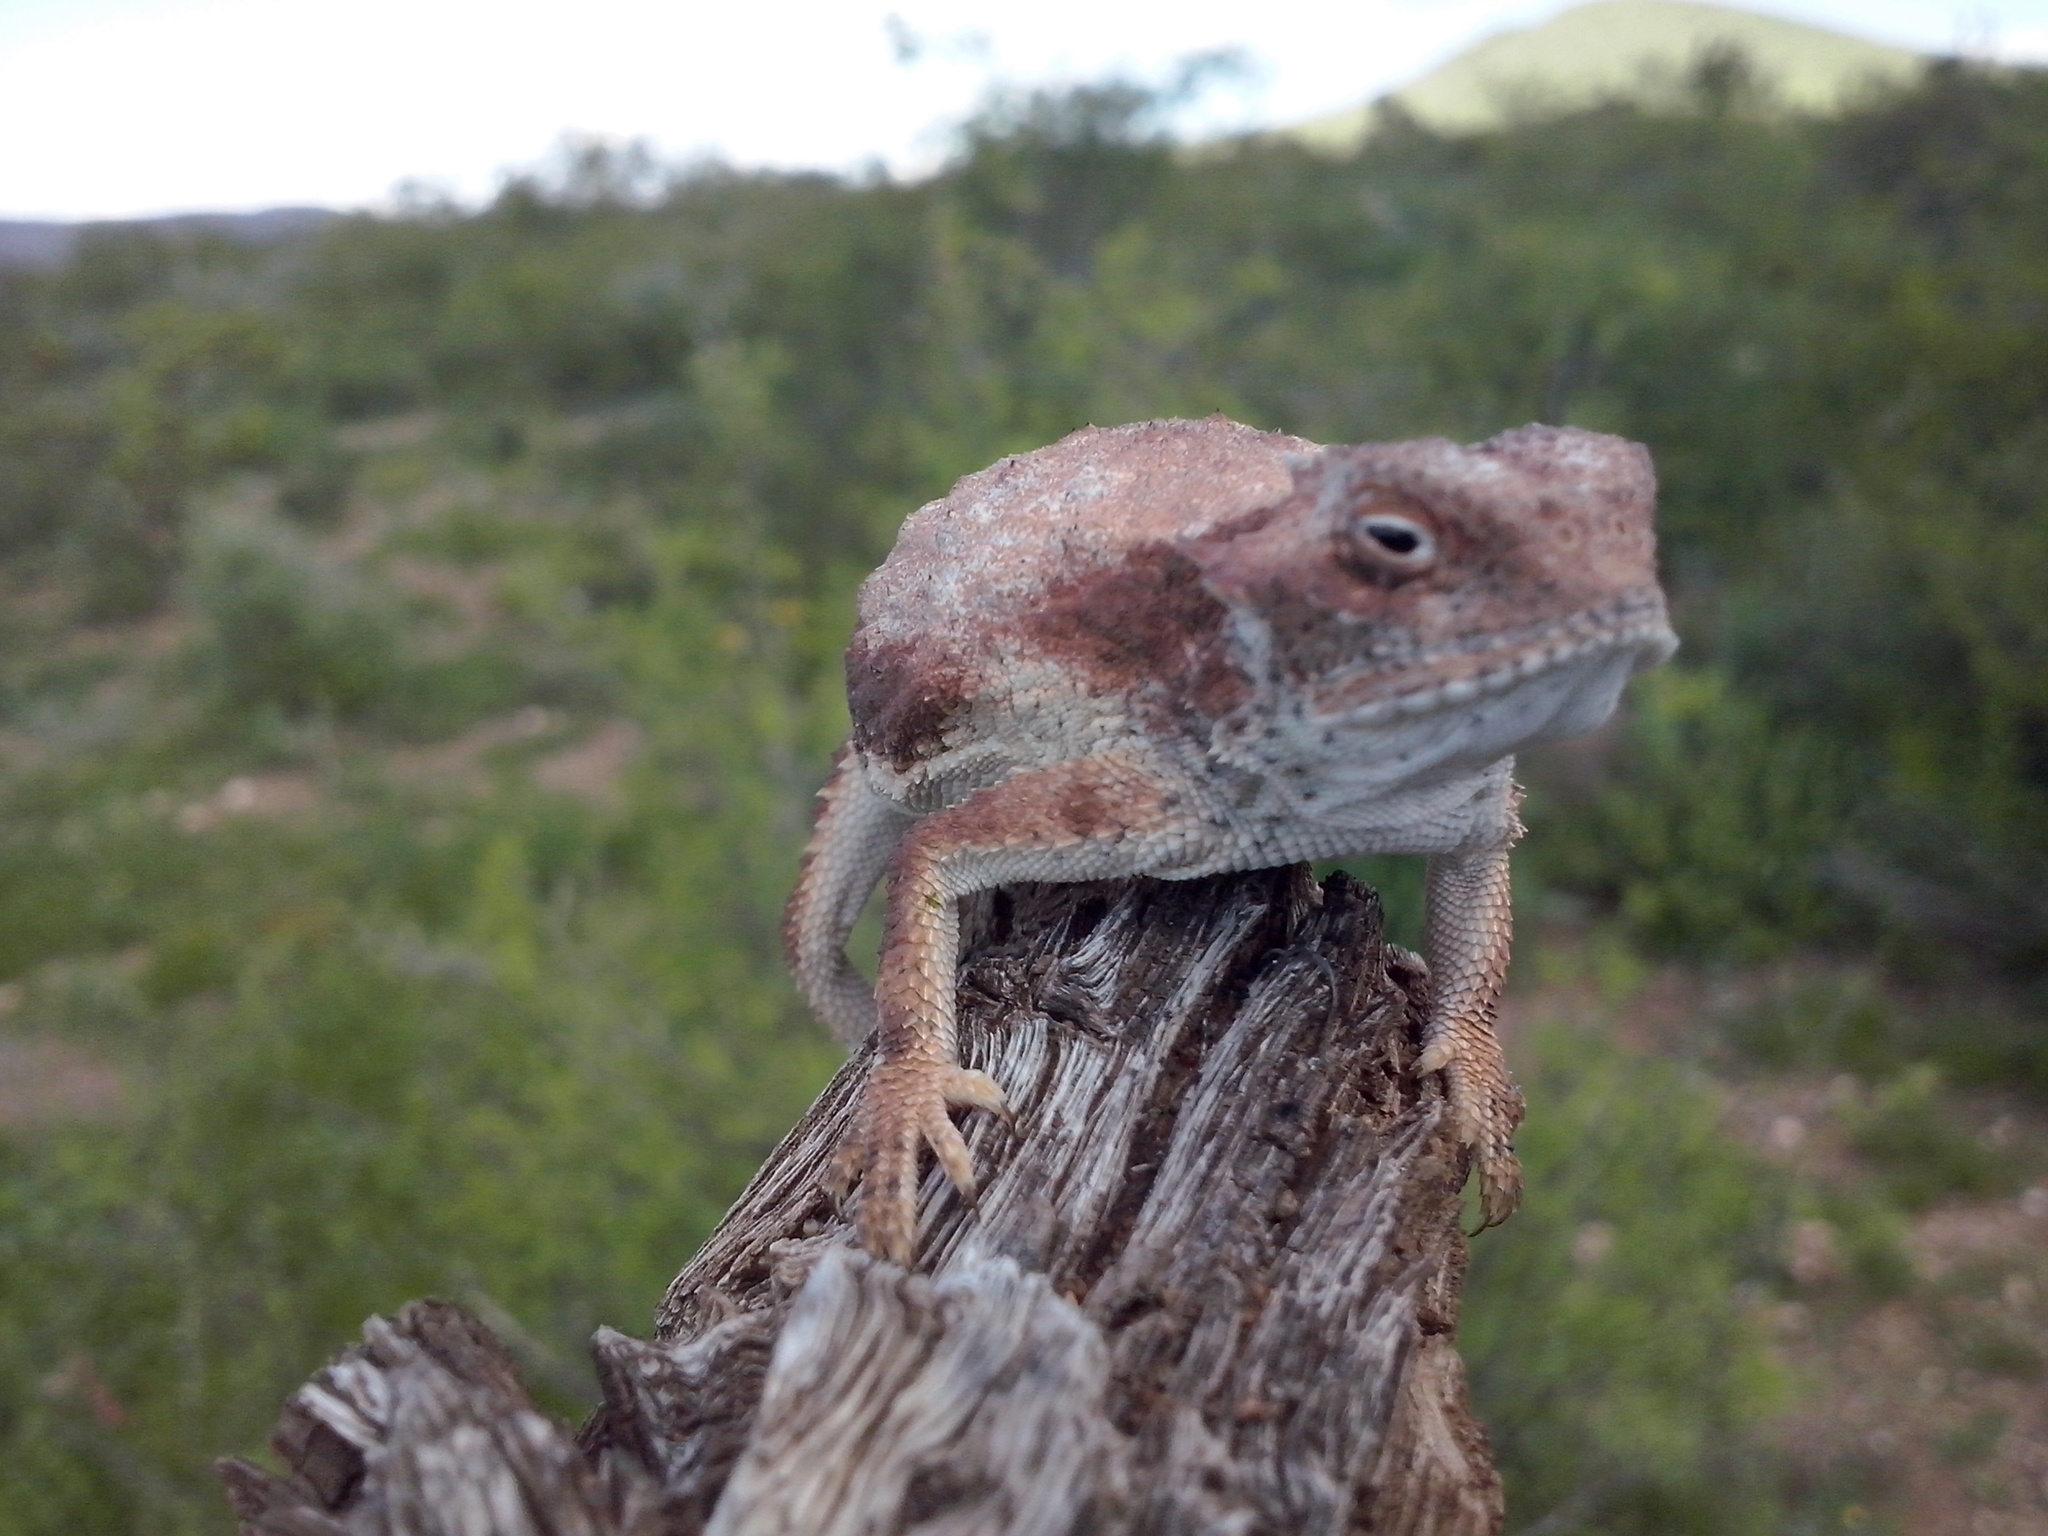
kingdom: Animalia
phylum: Chordata
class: Squamata
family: Phrynosomatidae
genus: Phrynosoma
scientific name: Phrynosoma modestum
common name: Roundtail horned lizard
